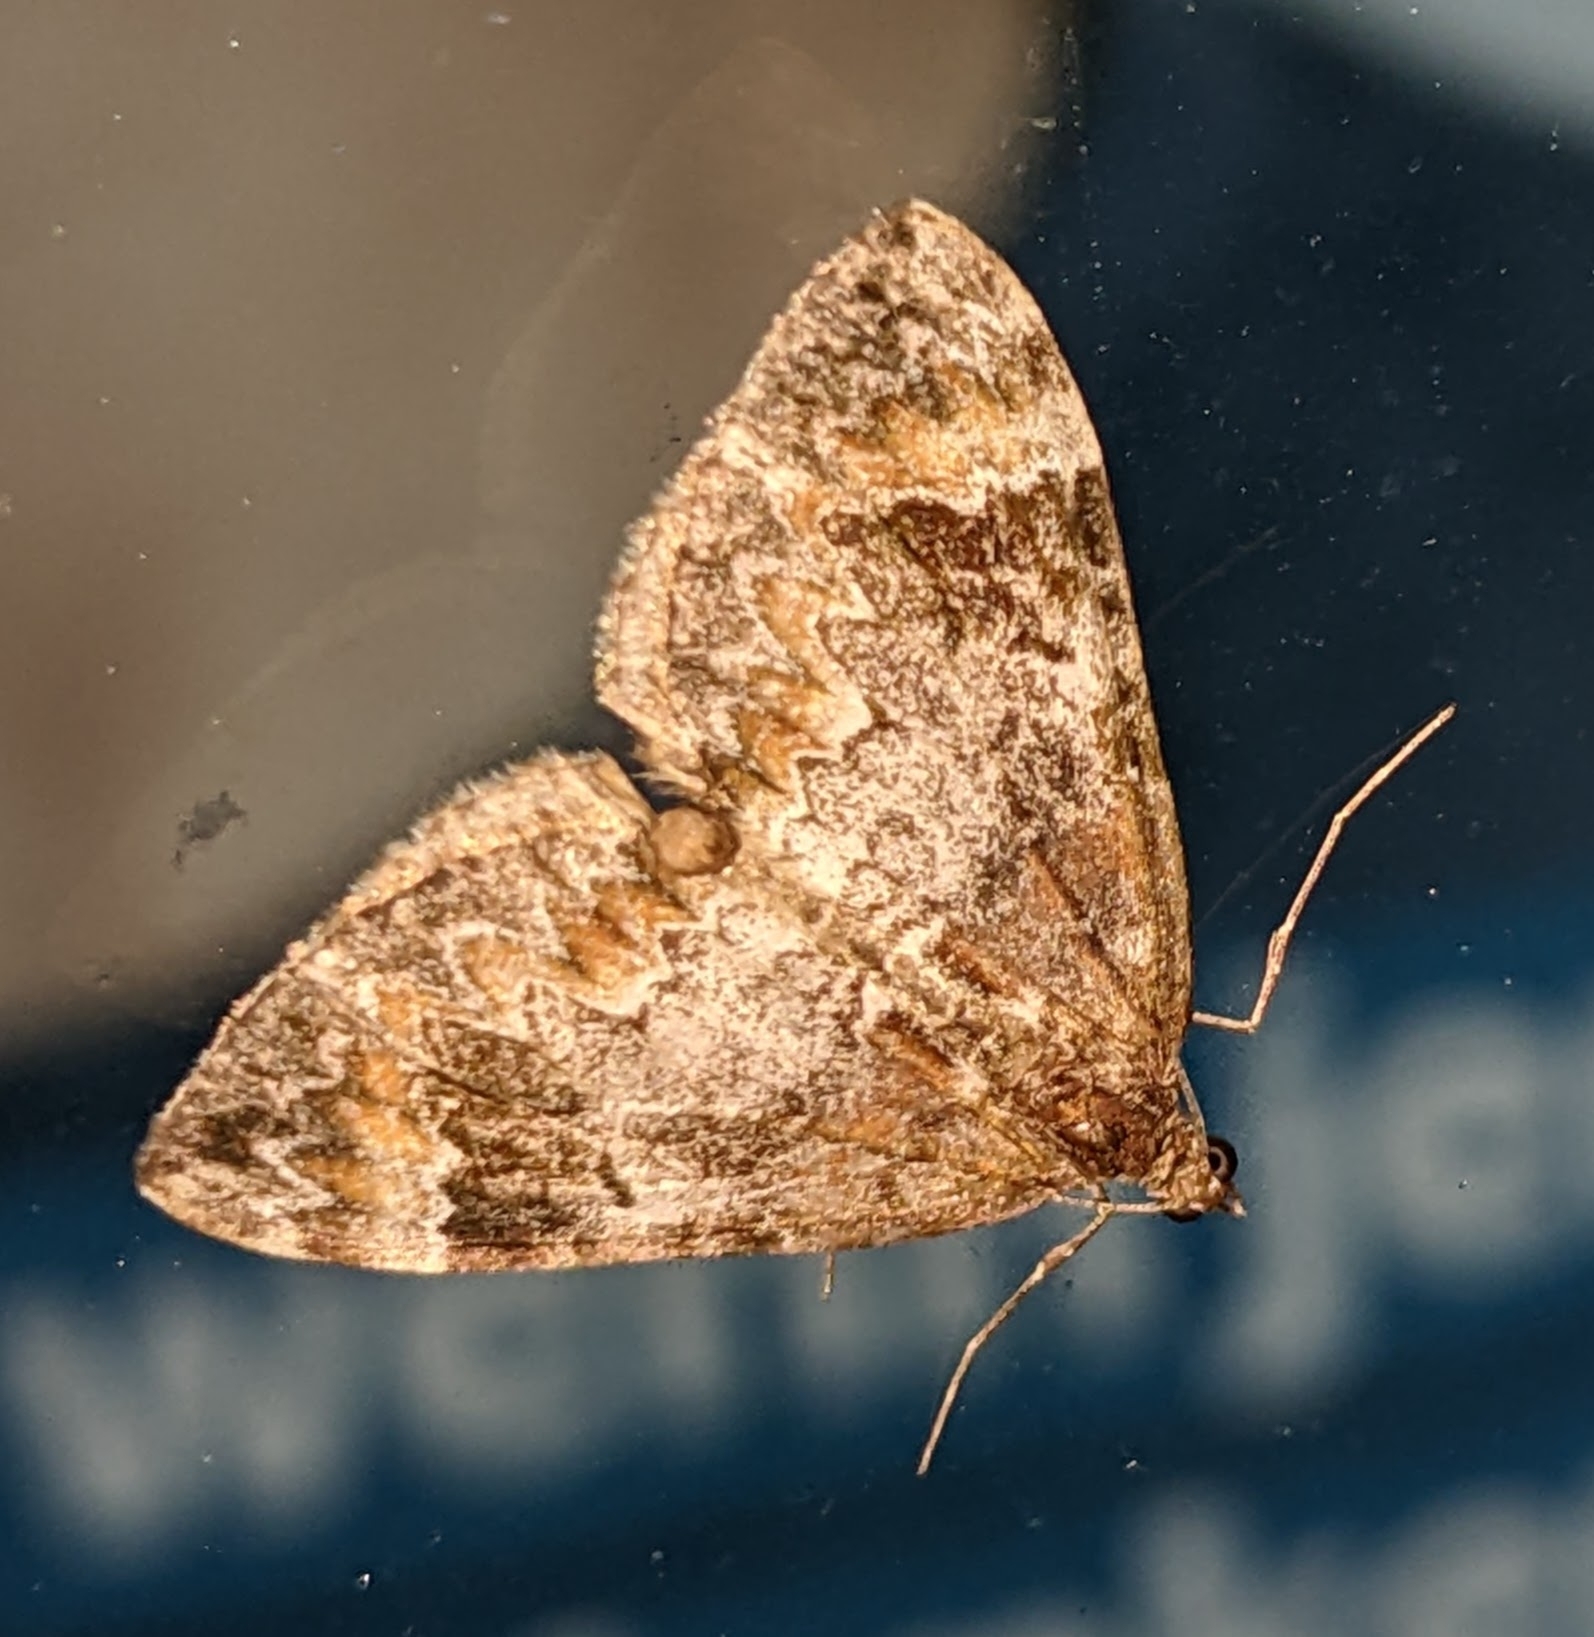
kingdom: Animalia
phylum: Arthropoda
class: Insecta
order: Lepidoptera
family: Geometridae
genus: Dysstroma
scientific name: Dysstroma truncata
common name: Common marbled carpet
